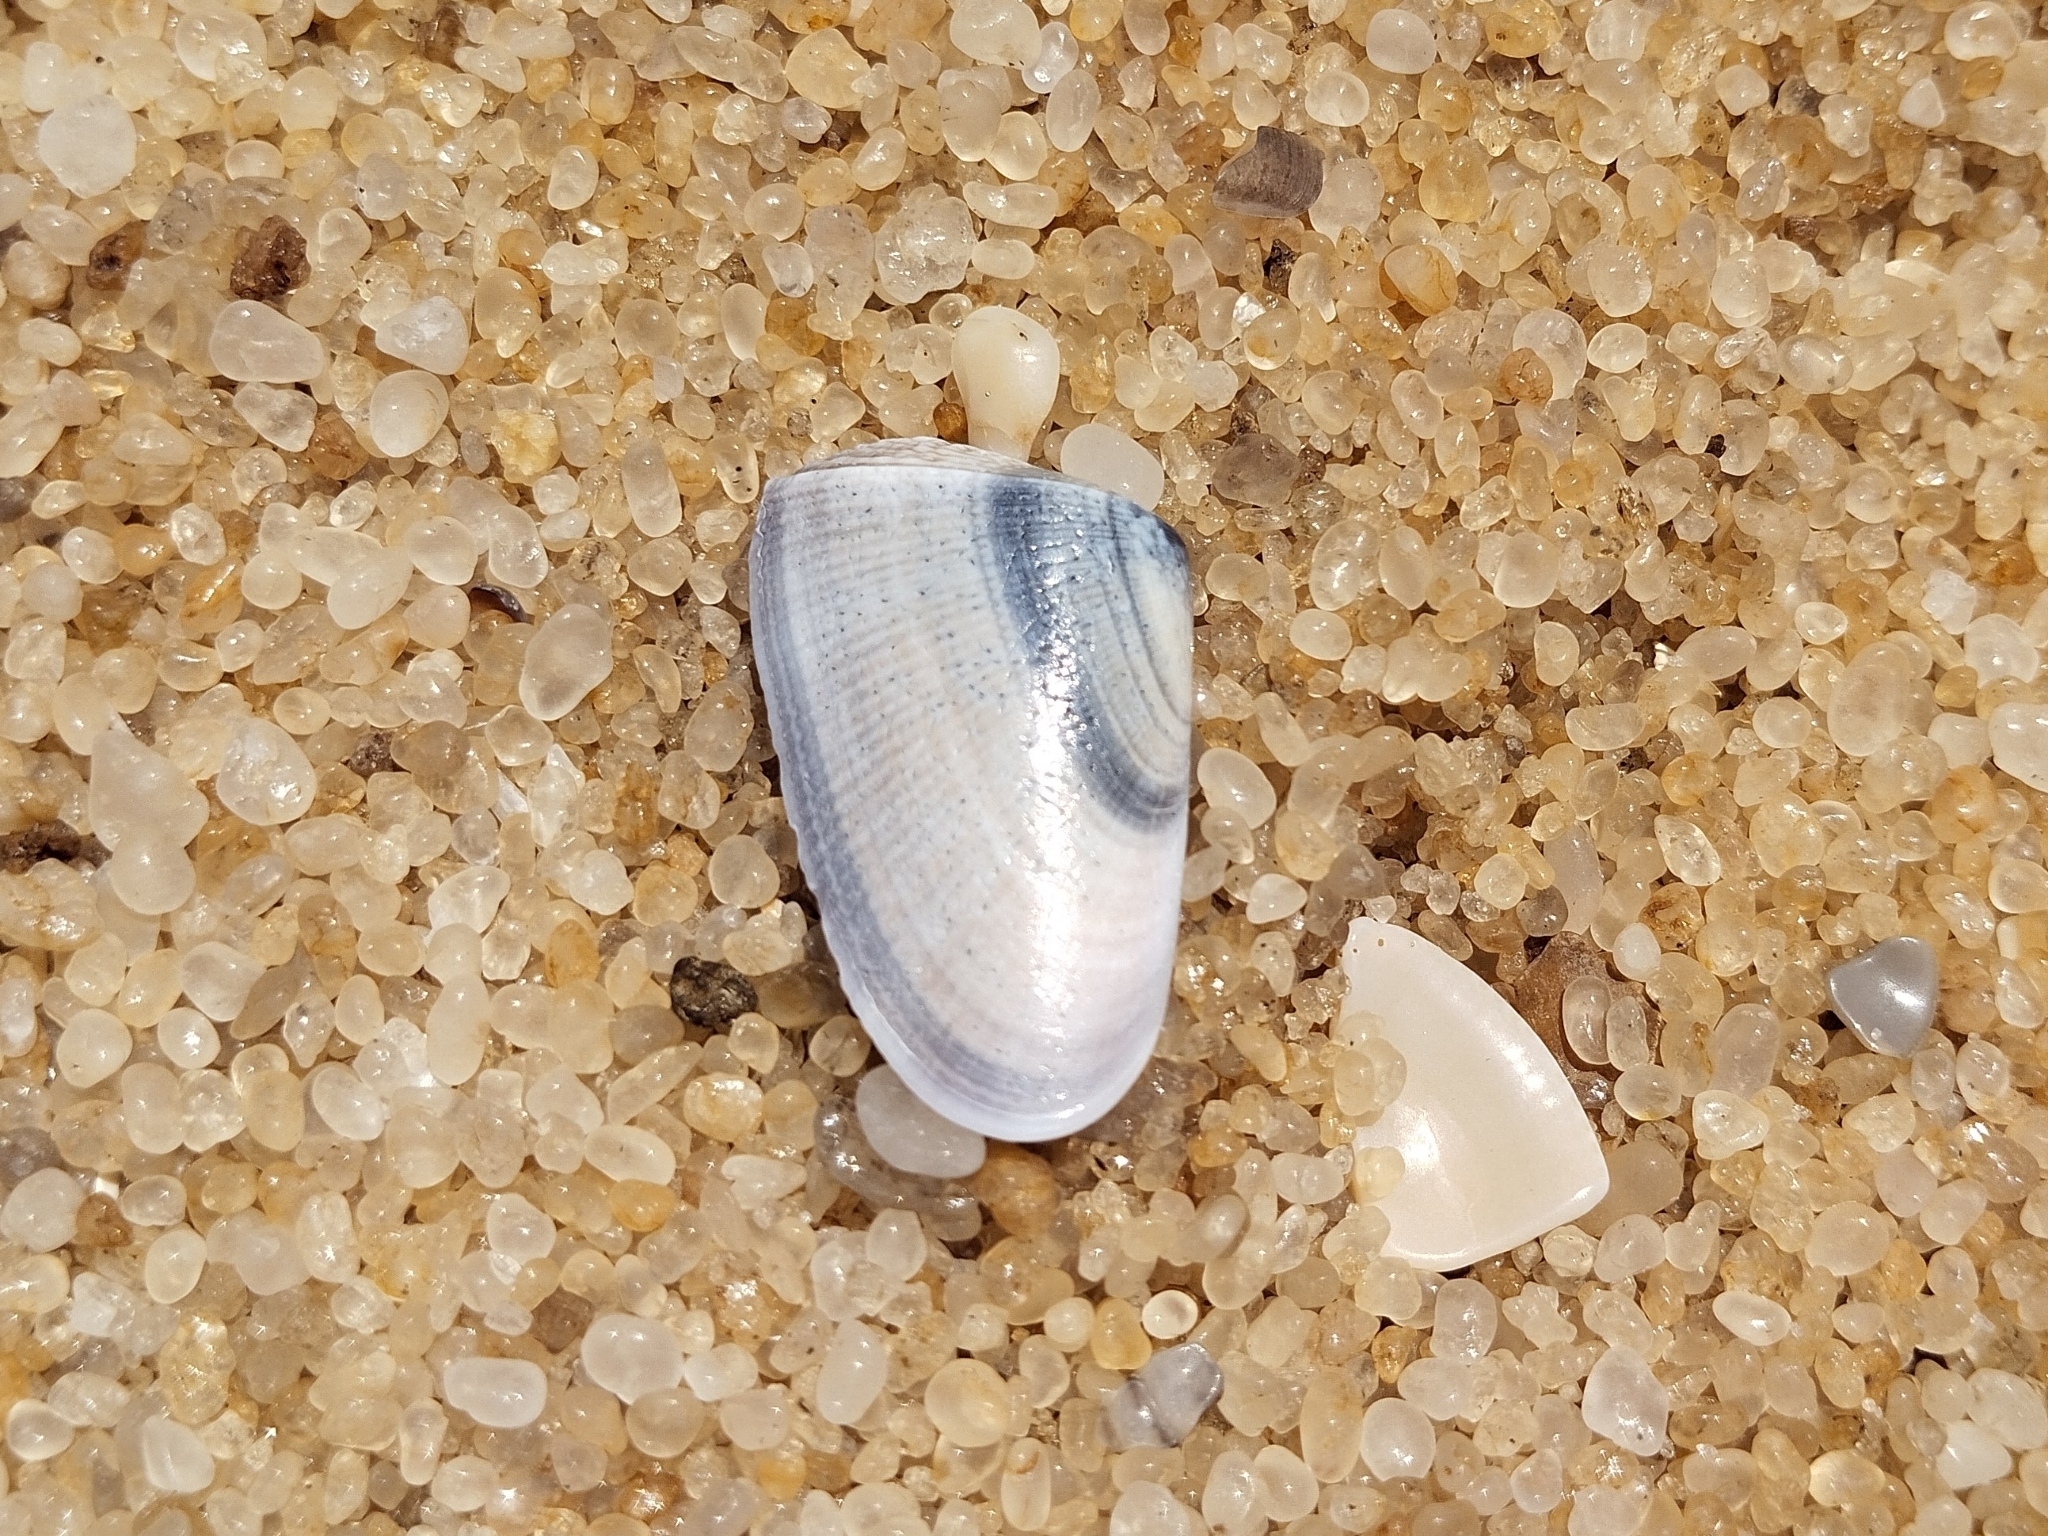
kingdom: Animalia
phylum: Mollusca
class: Bivalvia
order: Cardiida
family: Donacidae
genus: Donax
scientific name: Donax hanleyanus
